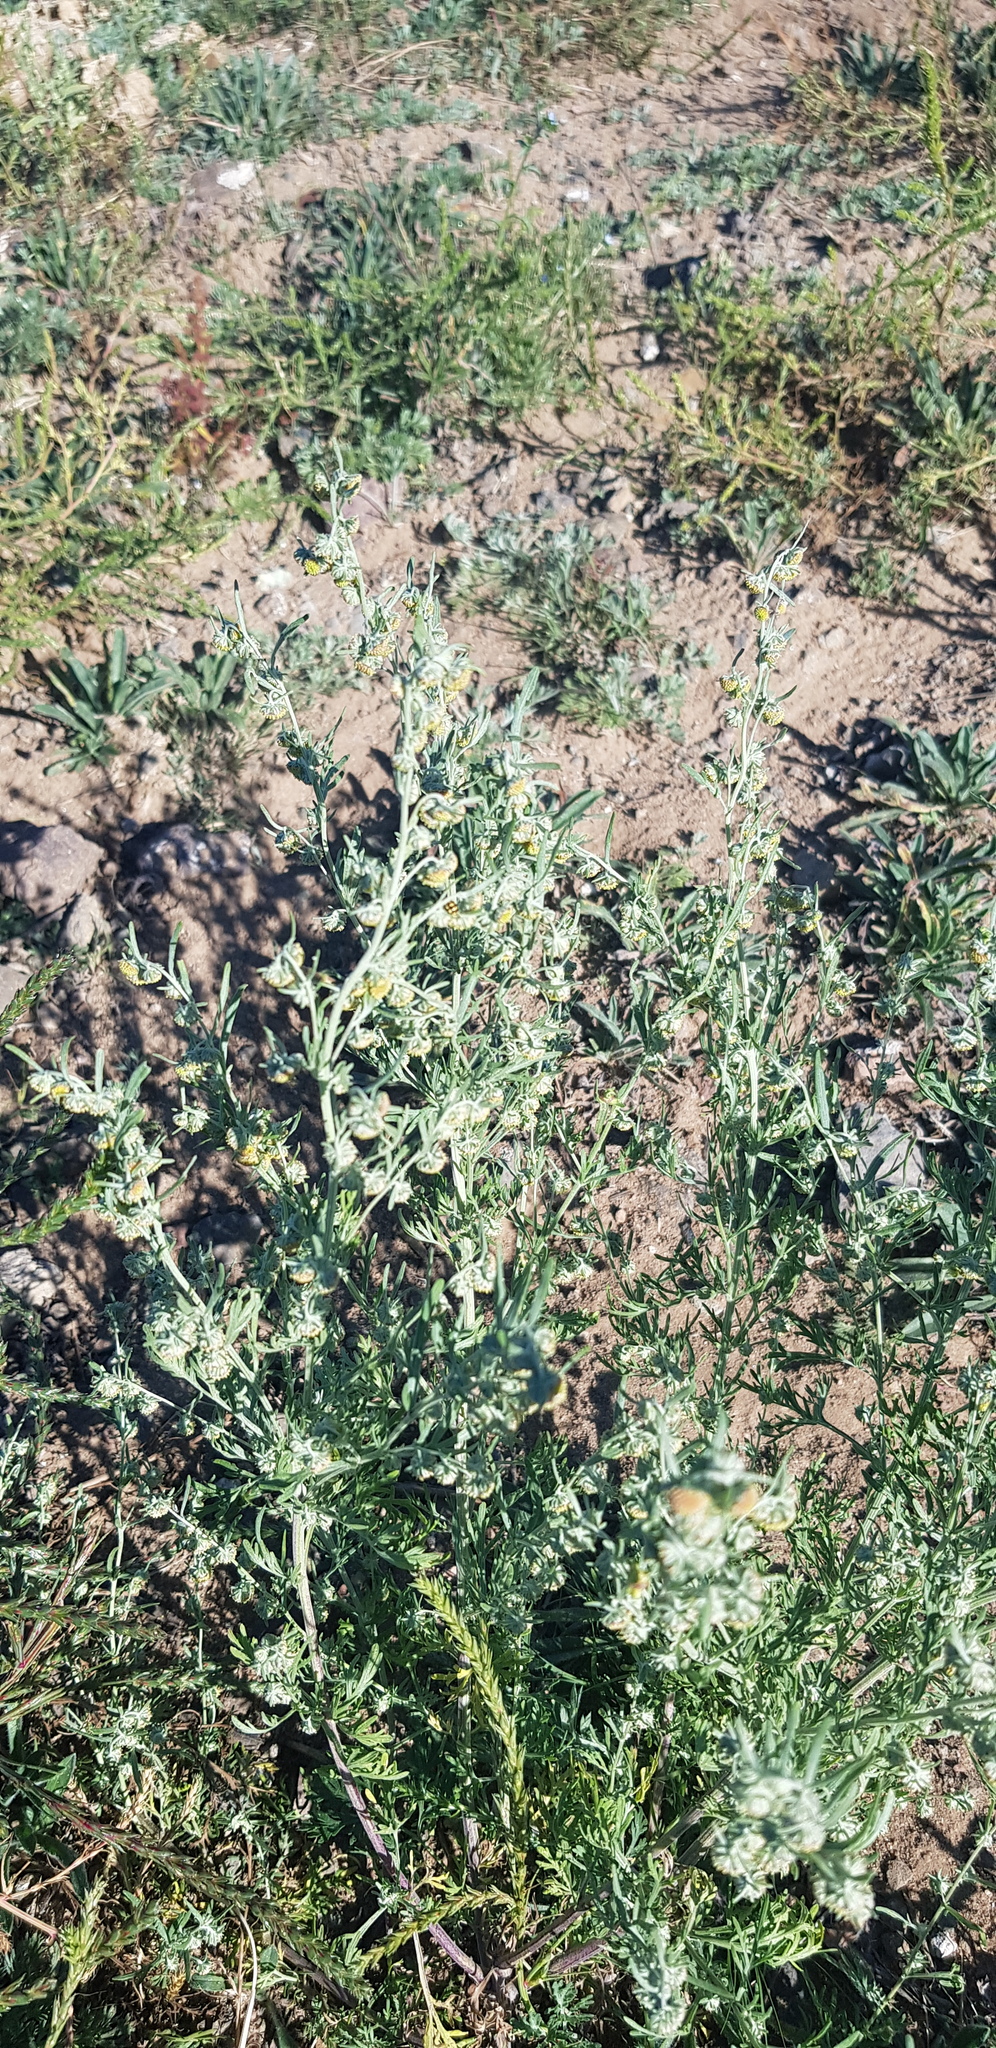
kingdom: Plantae
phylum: Tracheophyta
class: Magnoliopsida
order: Asterales
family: Asteraceae
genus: Artemisia
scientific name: Artemisia sieversiana
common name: Sieversian wormwood
